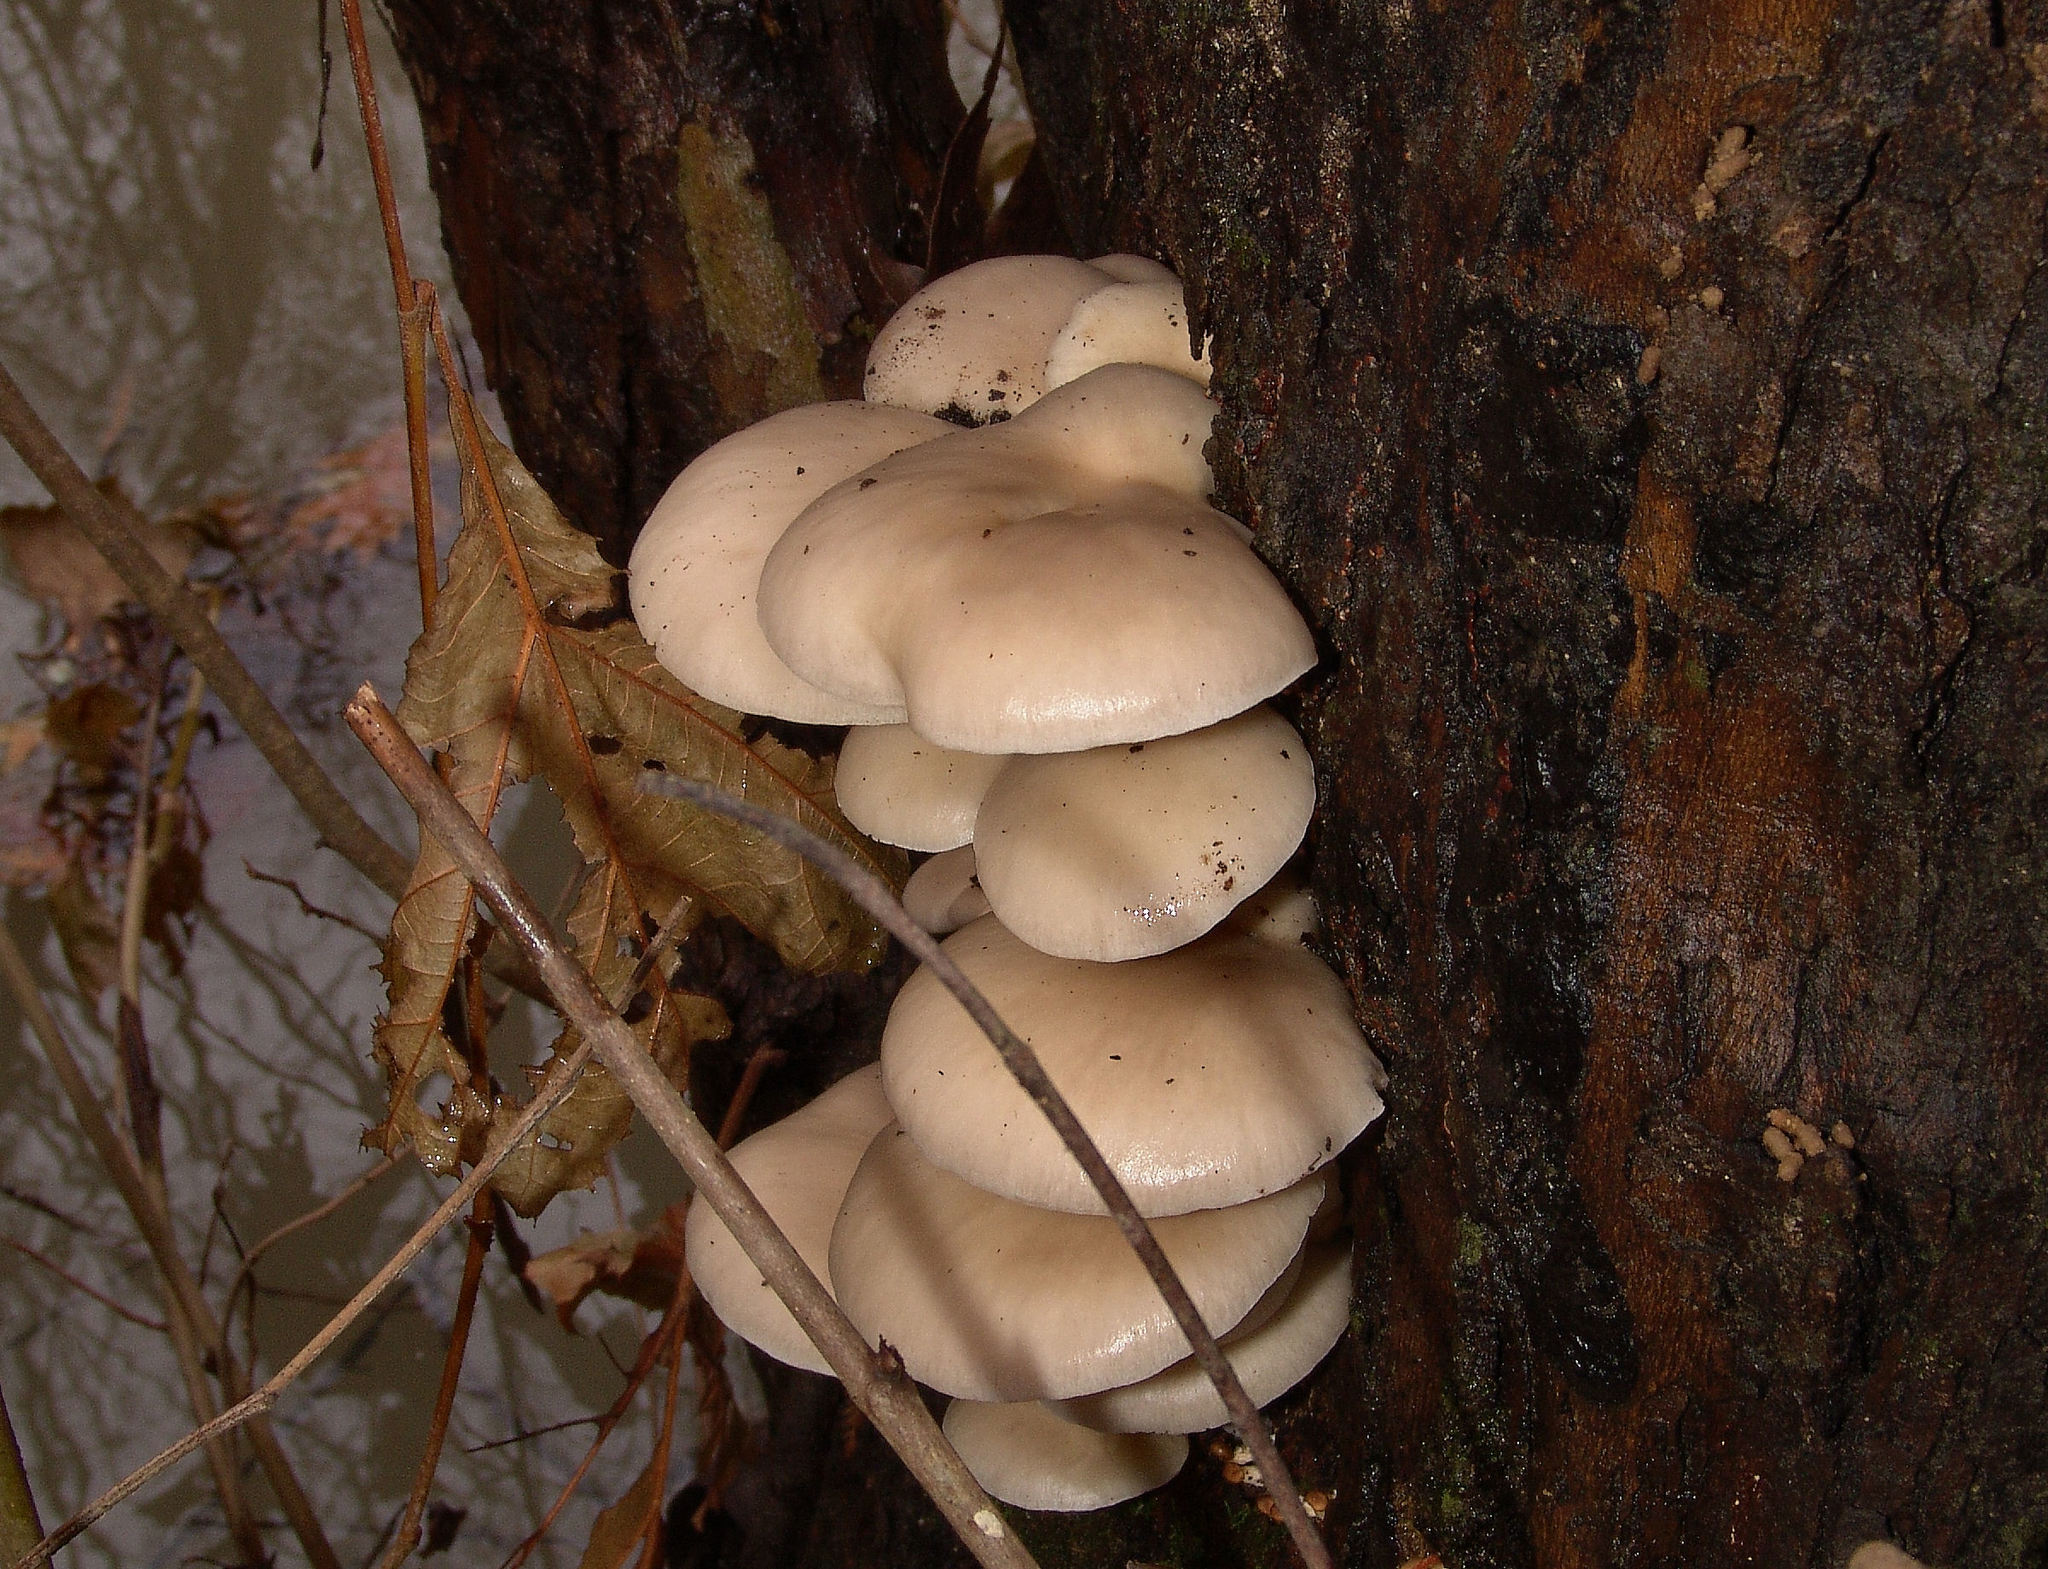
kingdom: Fungi
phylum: Basidiomycota
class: Agaricomycetes
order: Agaricales
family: Pleurotaceae
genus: Pleurotus
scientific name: Pleurotus ostreatus
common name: Oyster mushroom
